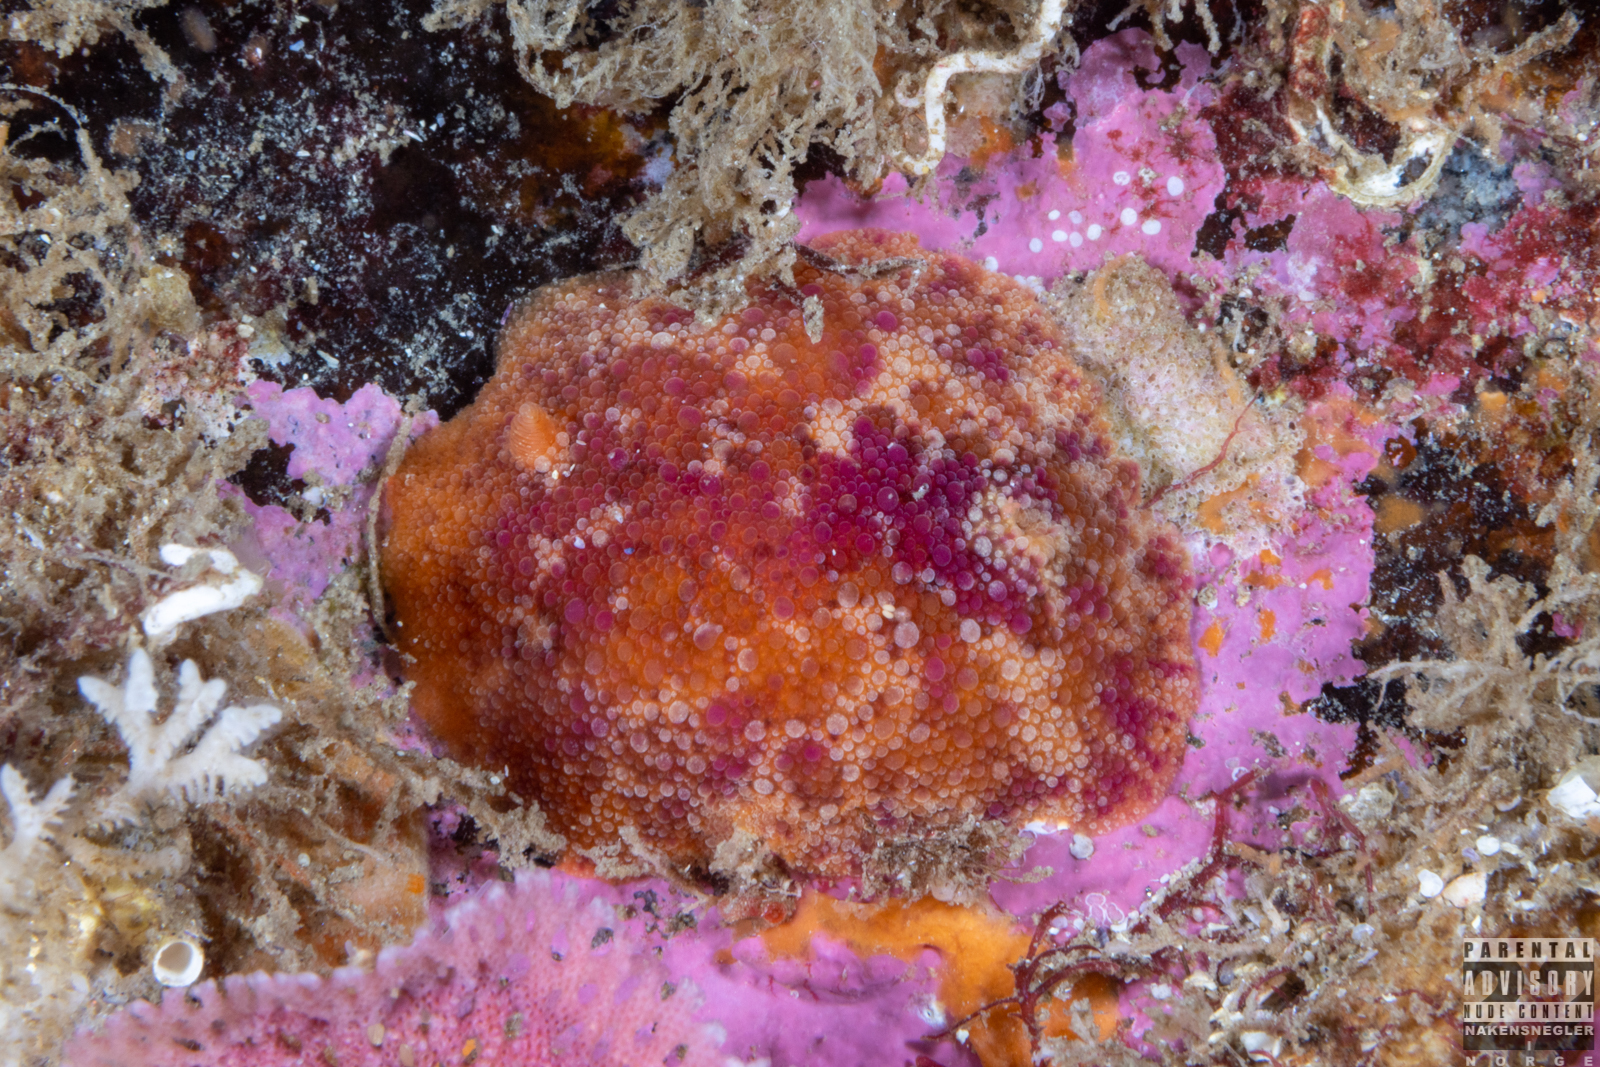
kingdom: Animalia
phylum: Mollusca
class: Gastropoda
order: Nudibranchia
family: Dorididae
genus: Doris
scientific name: Doris pseudoargus
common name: Sea lemon
